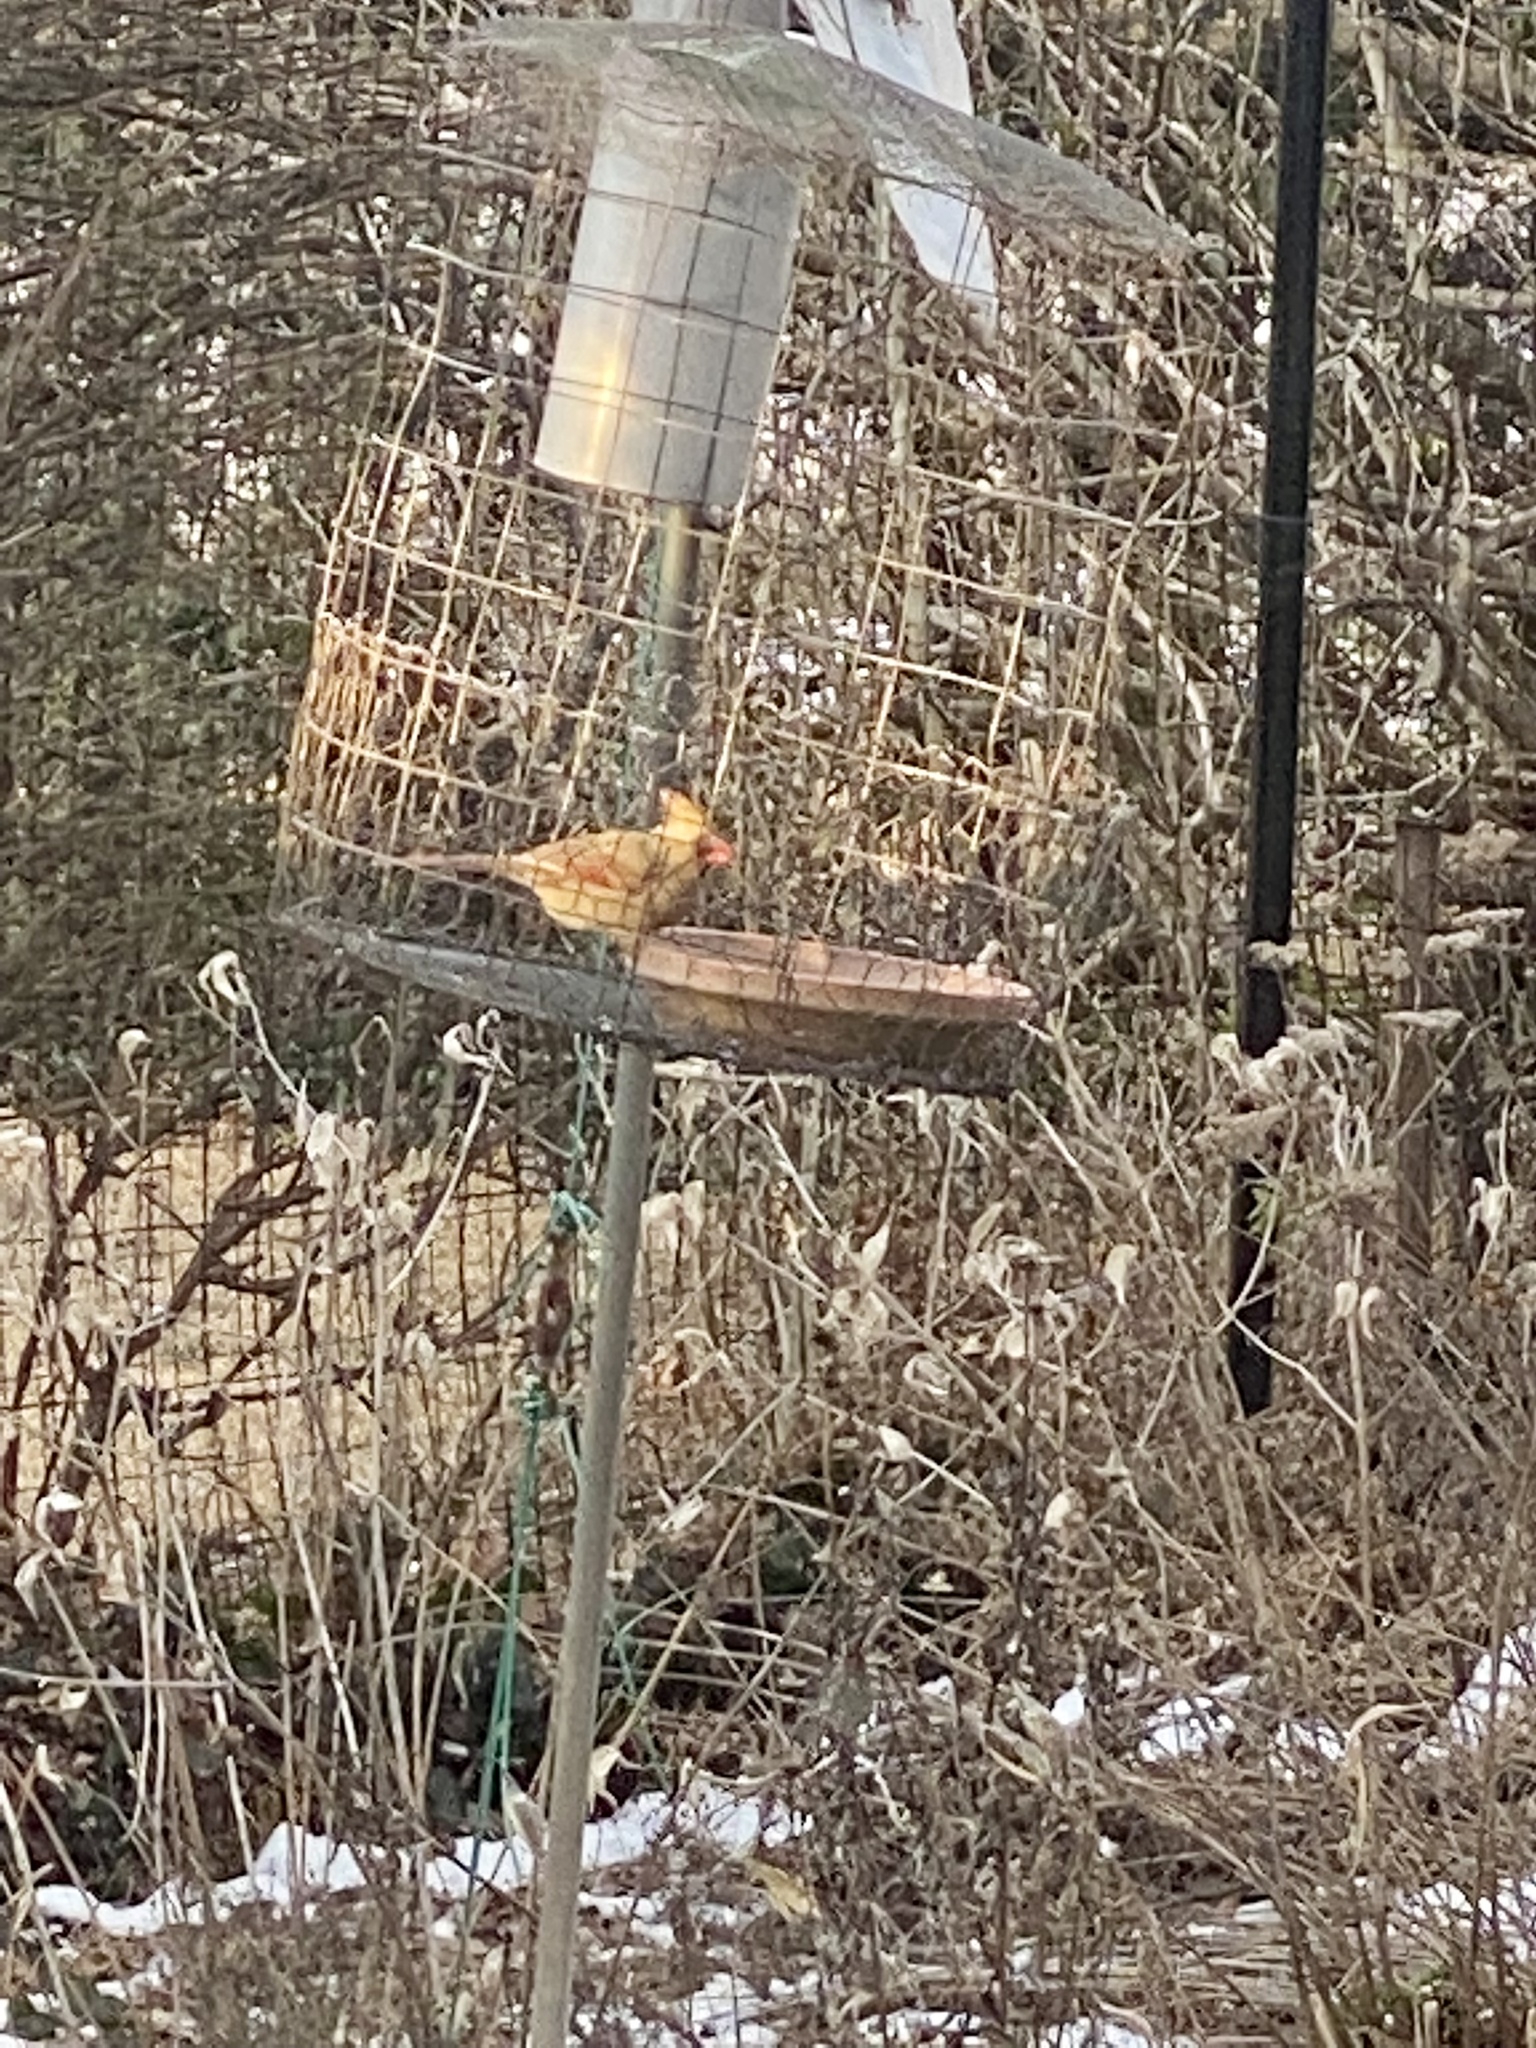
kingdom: Animalia
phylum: Chordata
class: Aves
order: Passeriformes
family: Cardinalidae
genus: Cardinalis
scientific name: Cardinalis cardinalis
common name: Northern cardinal
